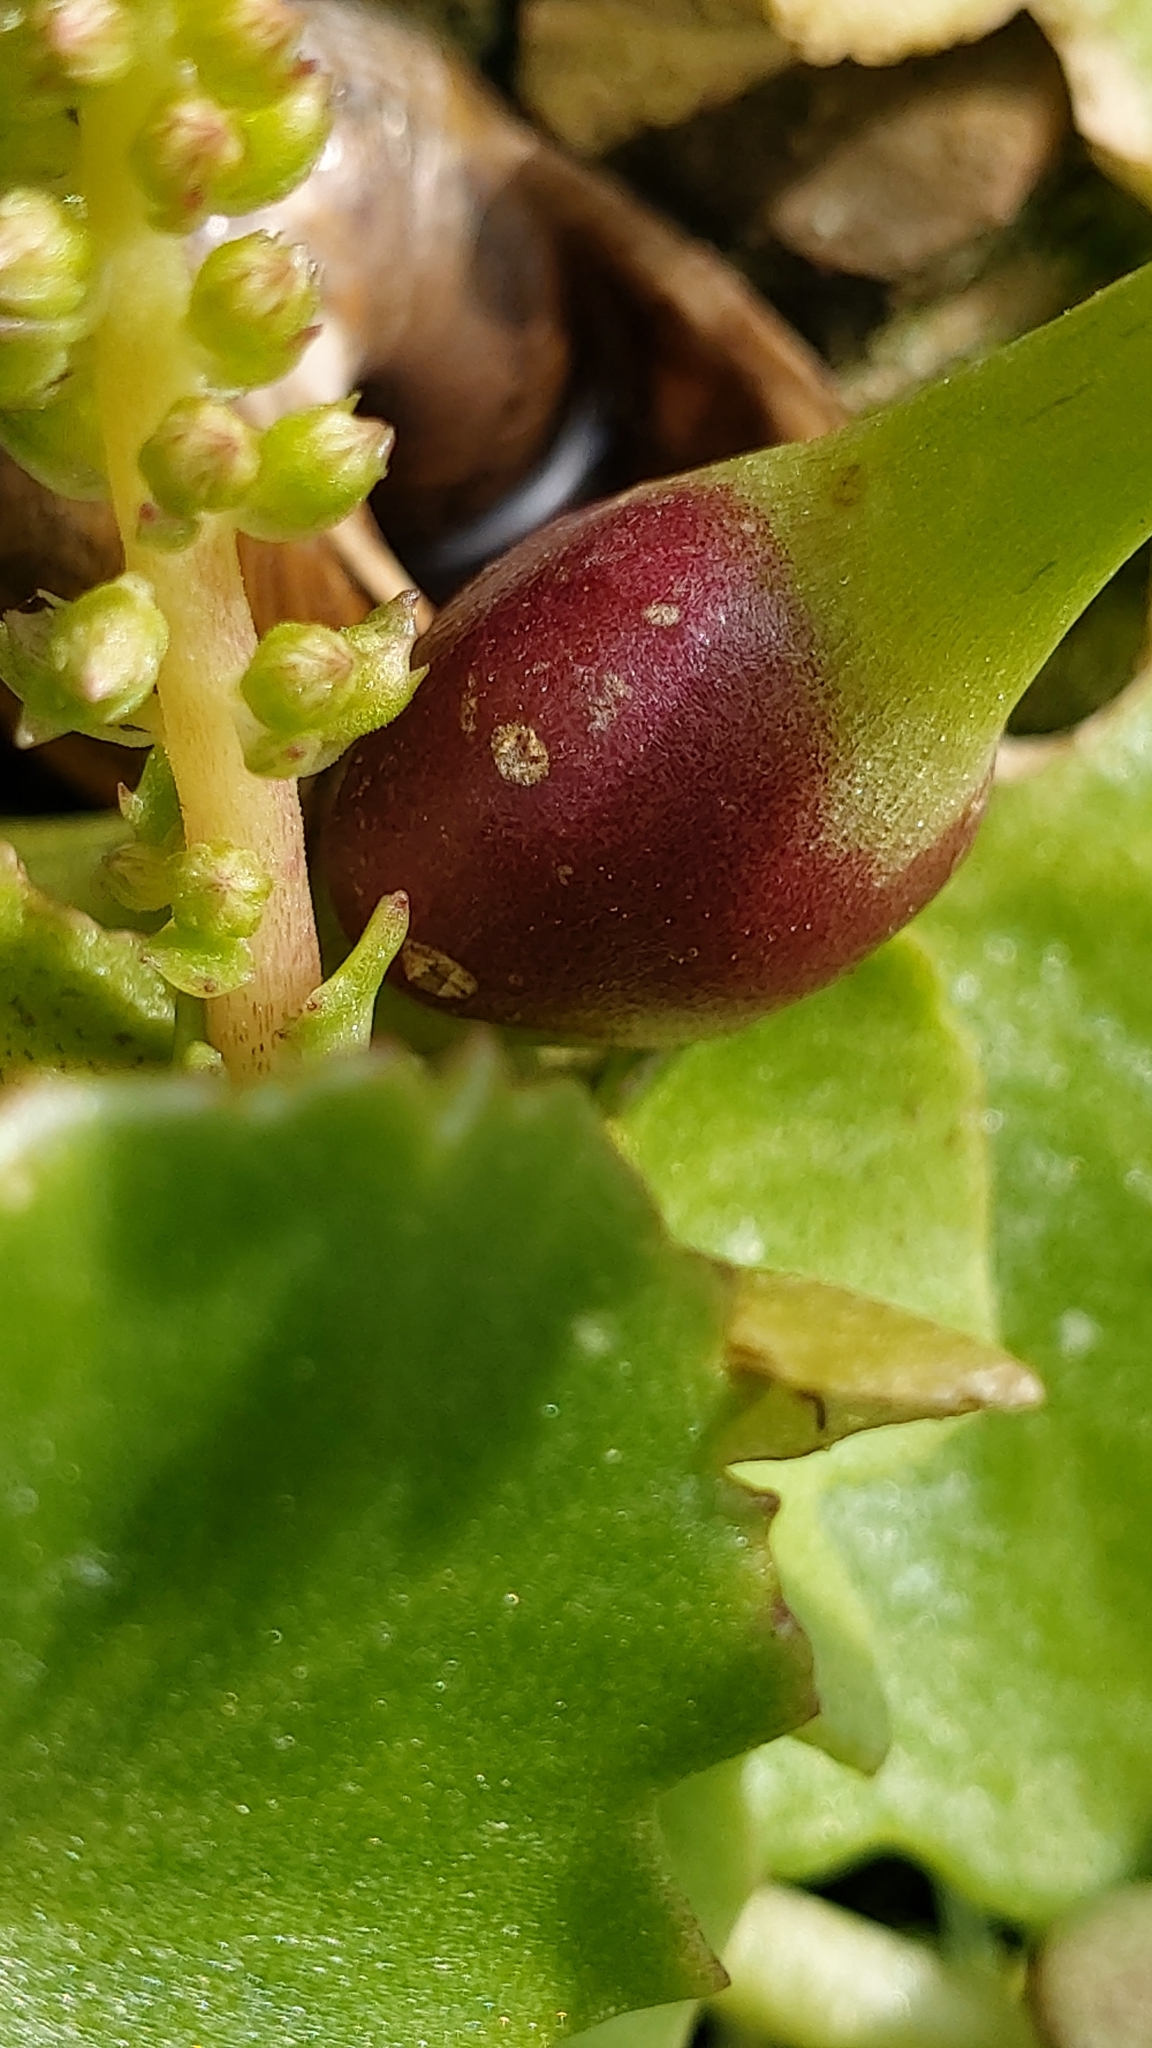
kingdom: Plantae
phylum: Tracheophyta
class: Magnoliopsida
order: Saxifragales
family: Crassulaceae
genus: Umbilicus
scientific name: Umbilicus rupestris
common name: Navelwort
